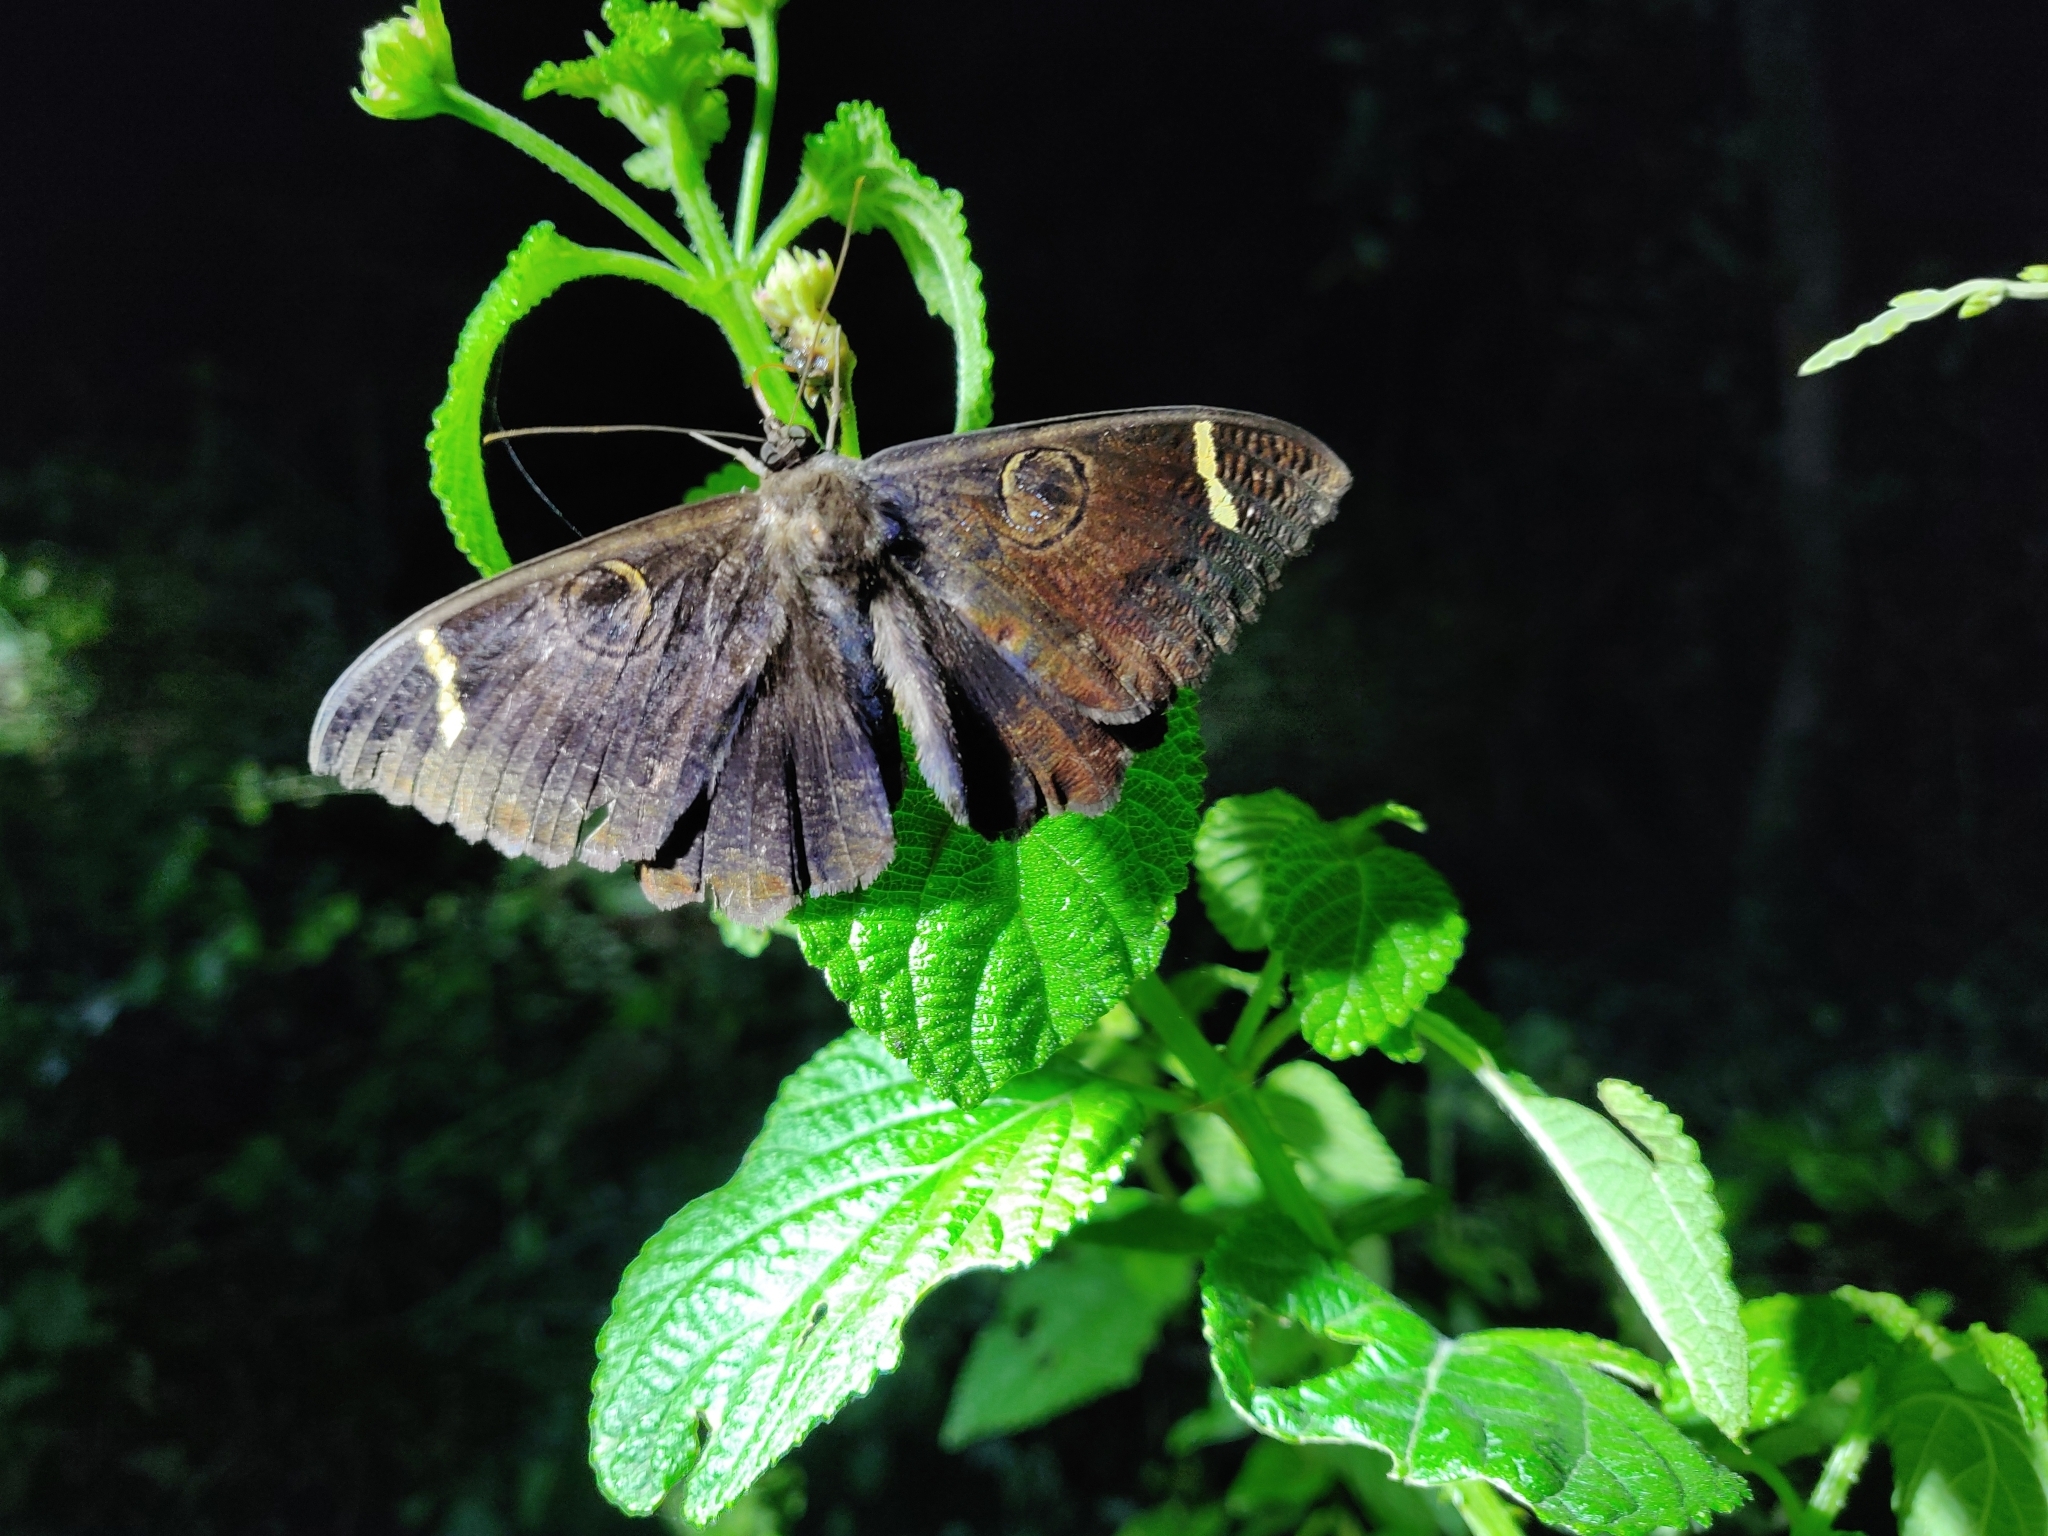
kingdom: Animalia
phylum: Arthropoda
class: Insecta
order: Lepidoptera
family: Erebidae
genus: Erebus
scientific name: Erebus hieroglyphica
